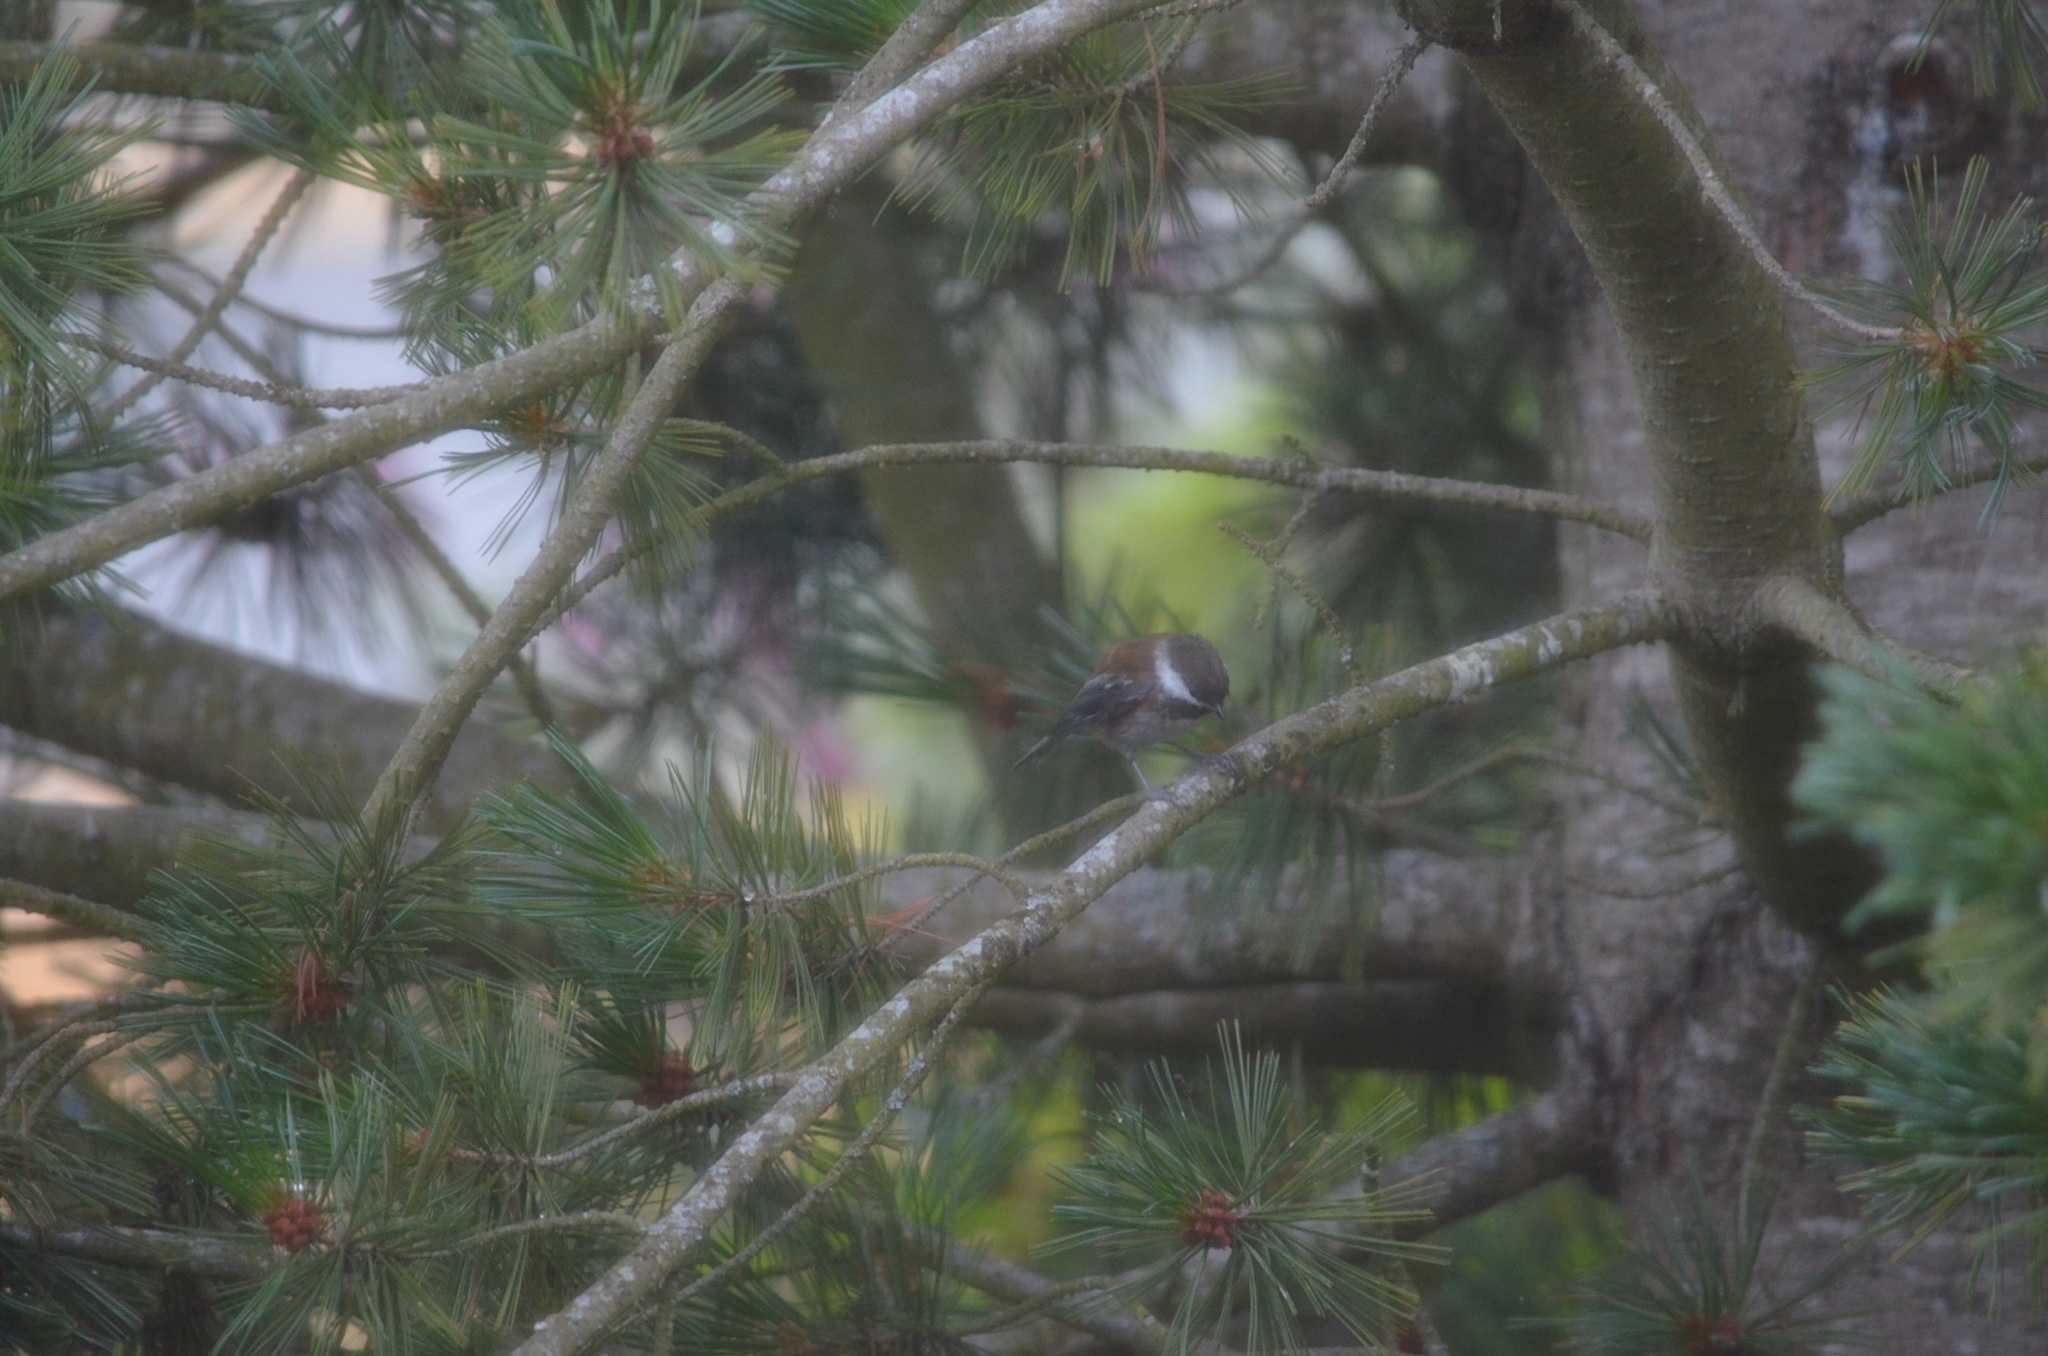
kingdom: Animalia
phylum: Chordata
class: Aves
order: Passeriformes
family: Paridae
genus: Poecile
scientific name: Poecile rufescens
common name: Chestnut-backed chickadee
